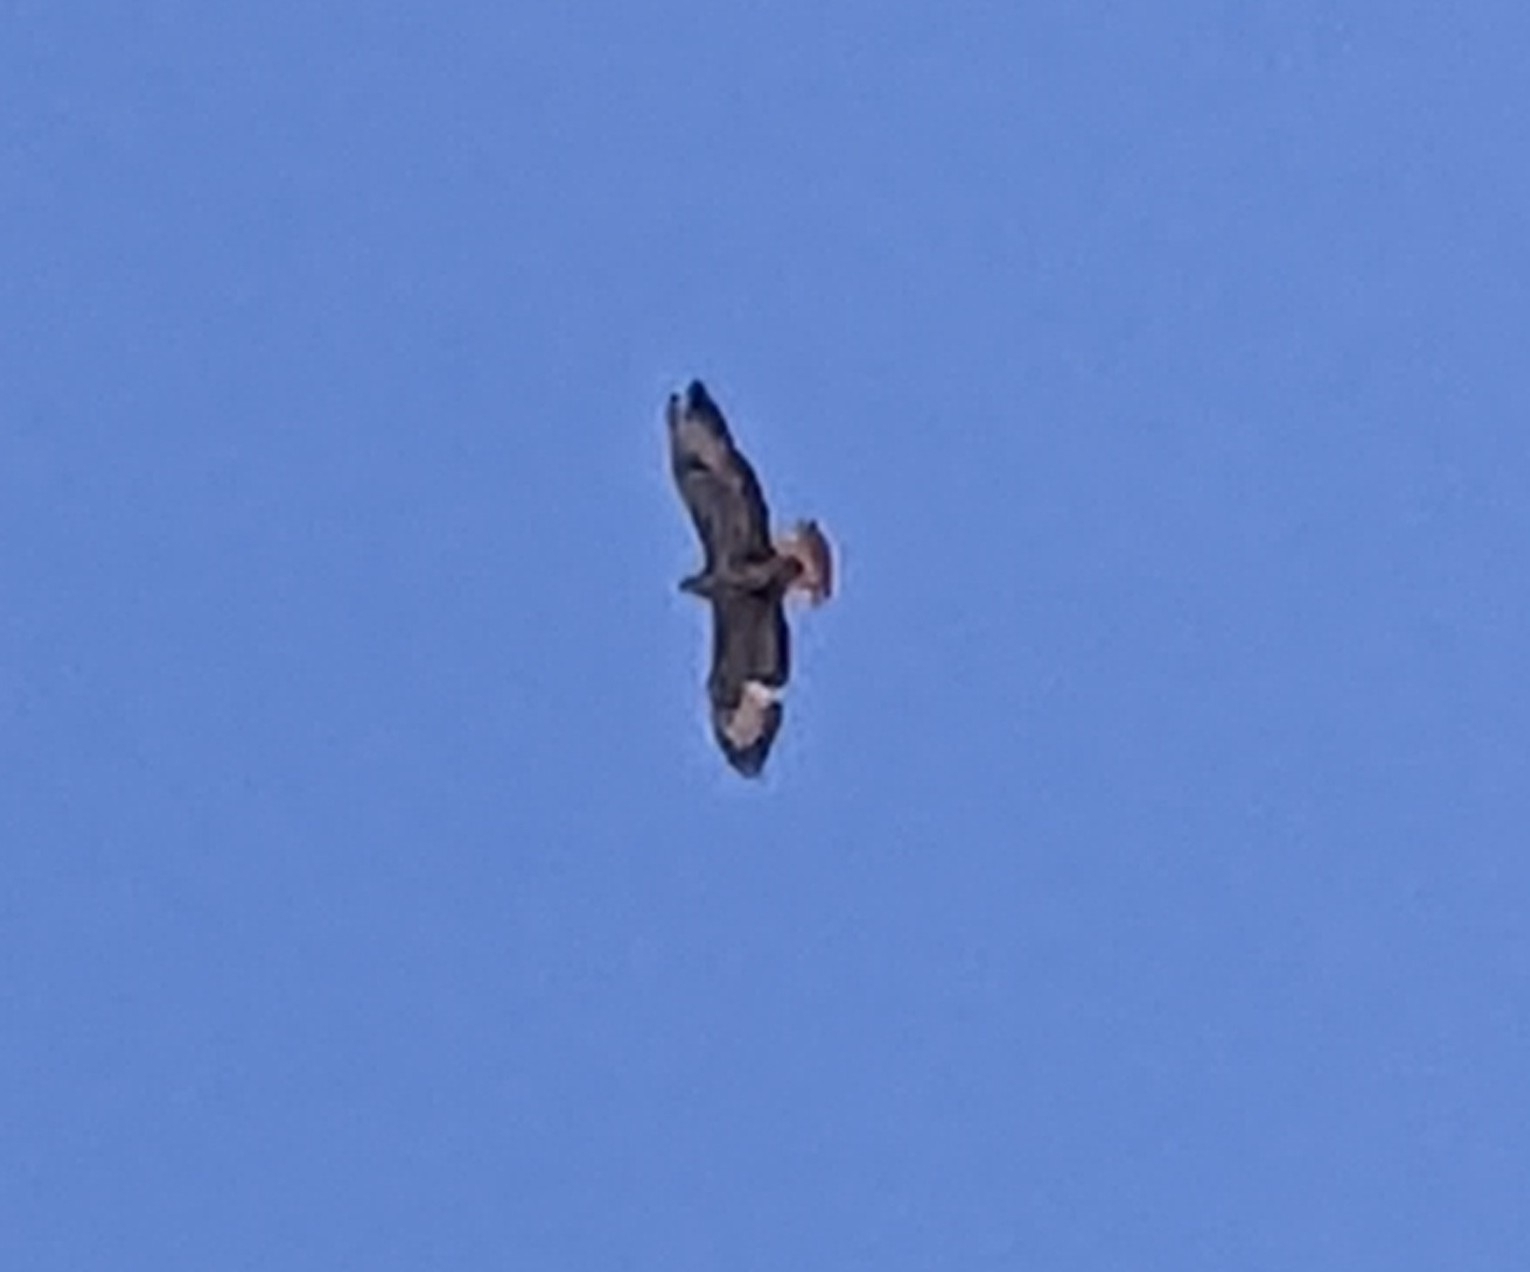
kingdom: Animalia
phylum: Chordata
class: Aves
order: Accipitriformes
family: Accipitridae
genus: Buteo
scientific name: Buteo buteo
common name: Common buzzard
